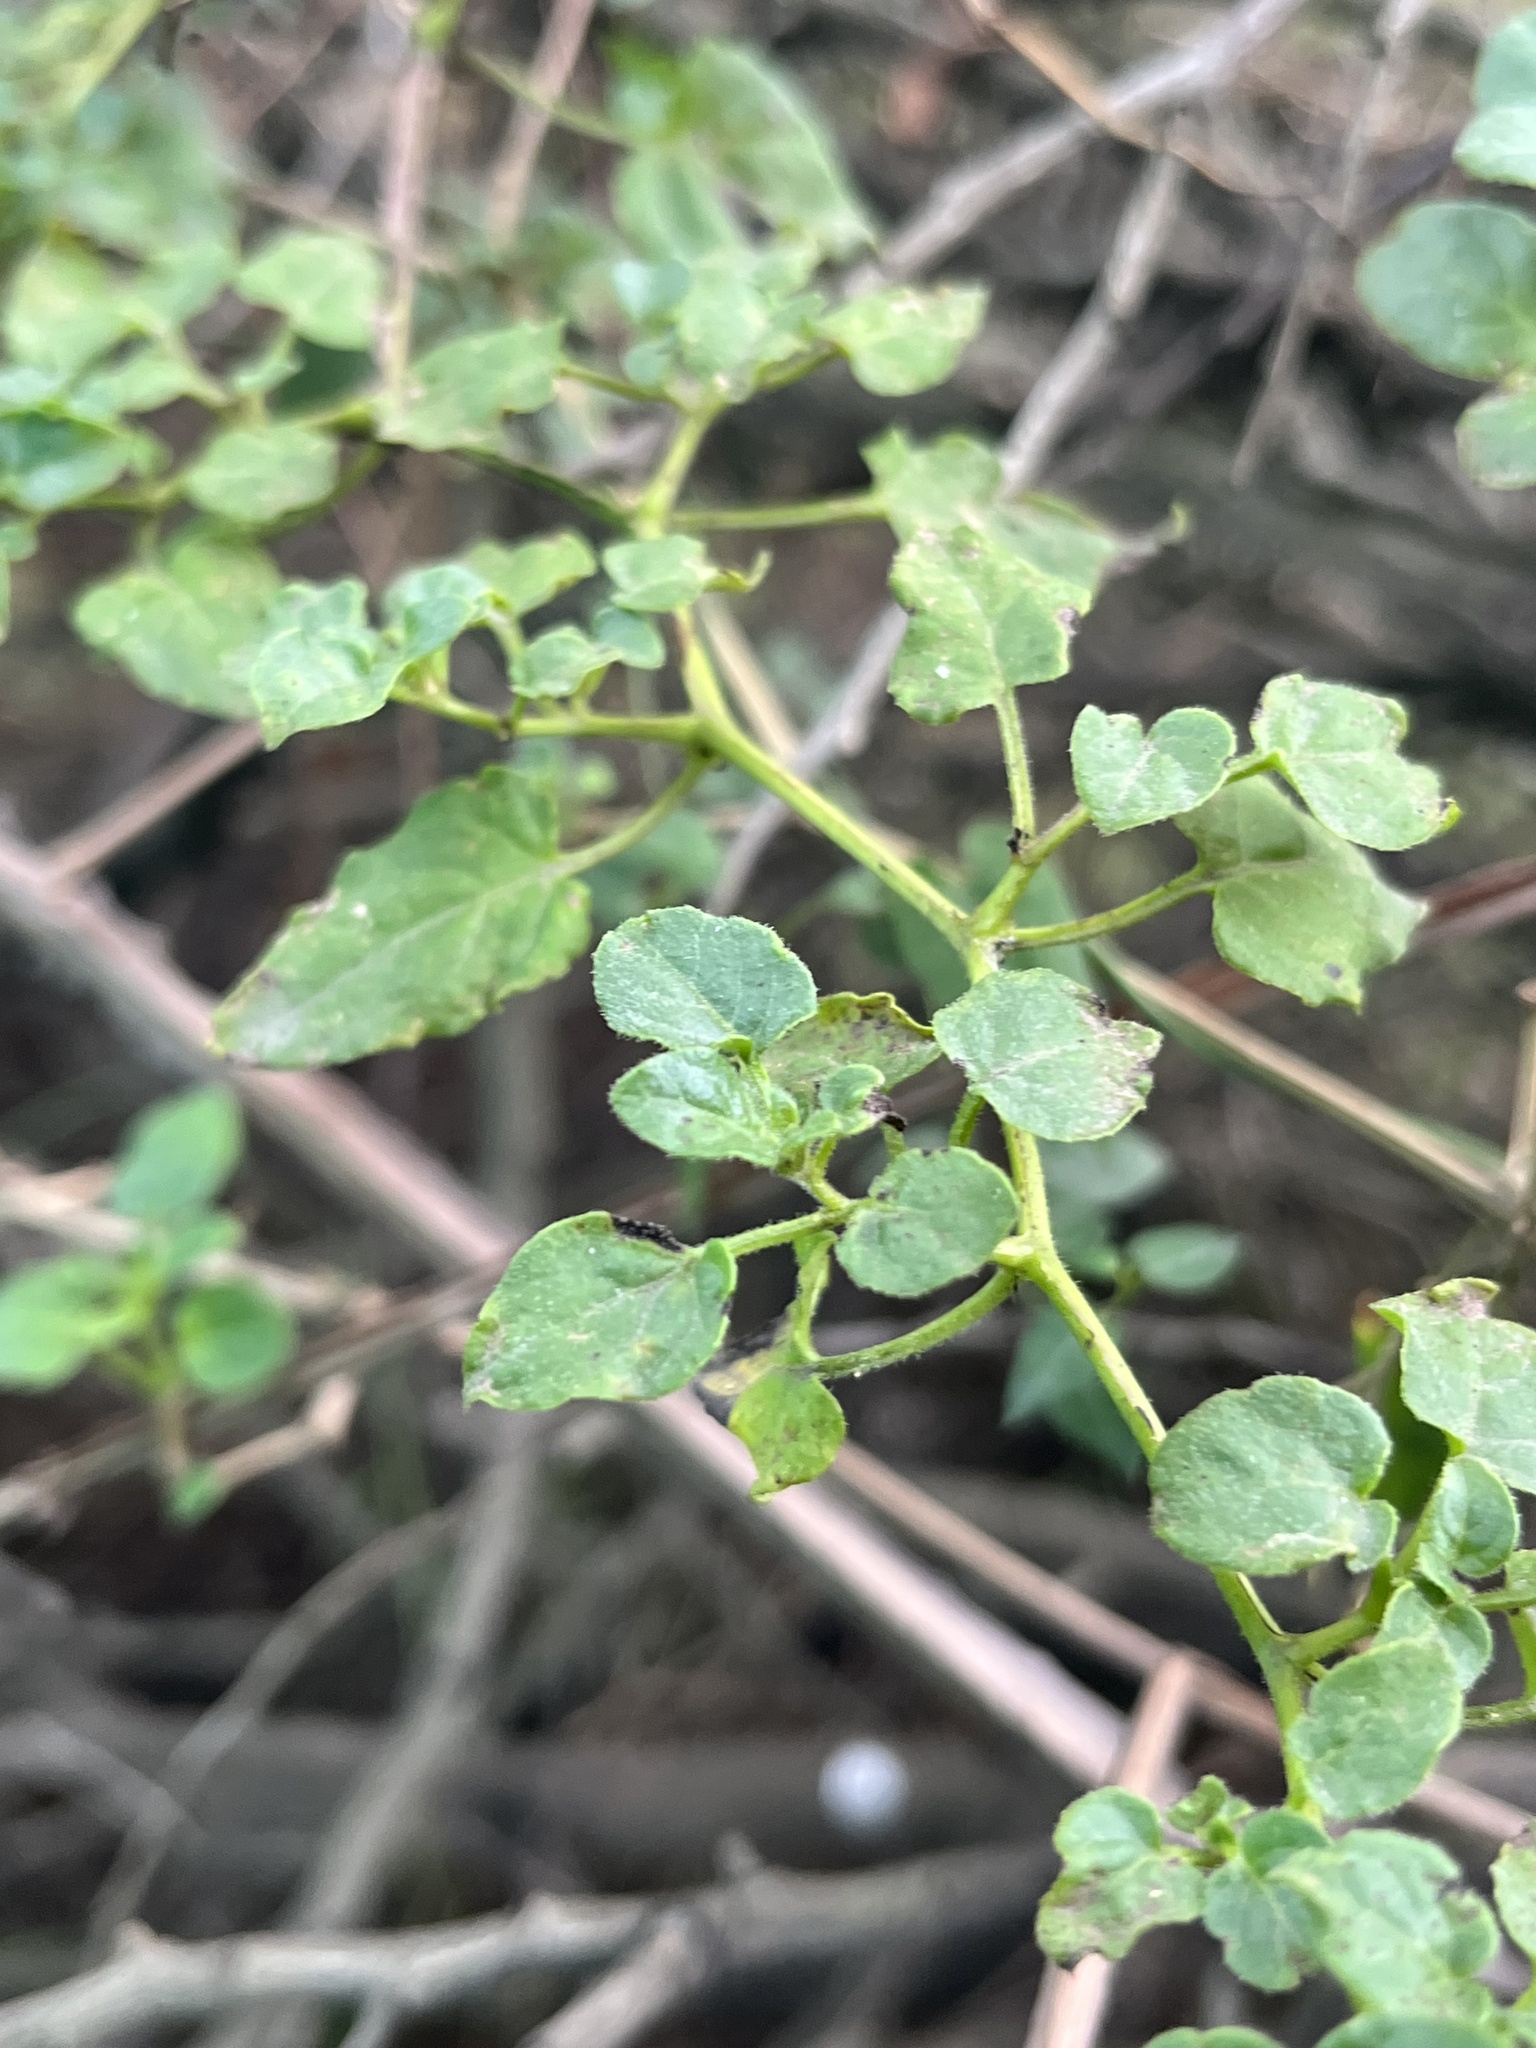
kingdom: Plantae
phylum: Tracheophyta
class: Magnoliopsida
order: Solanales
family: Solanaceae
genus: Salpichroa
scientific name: Salpichroa tristis
